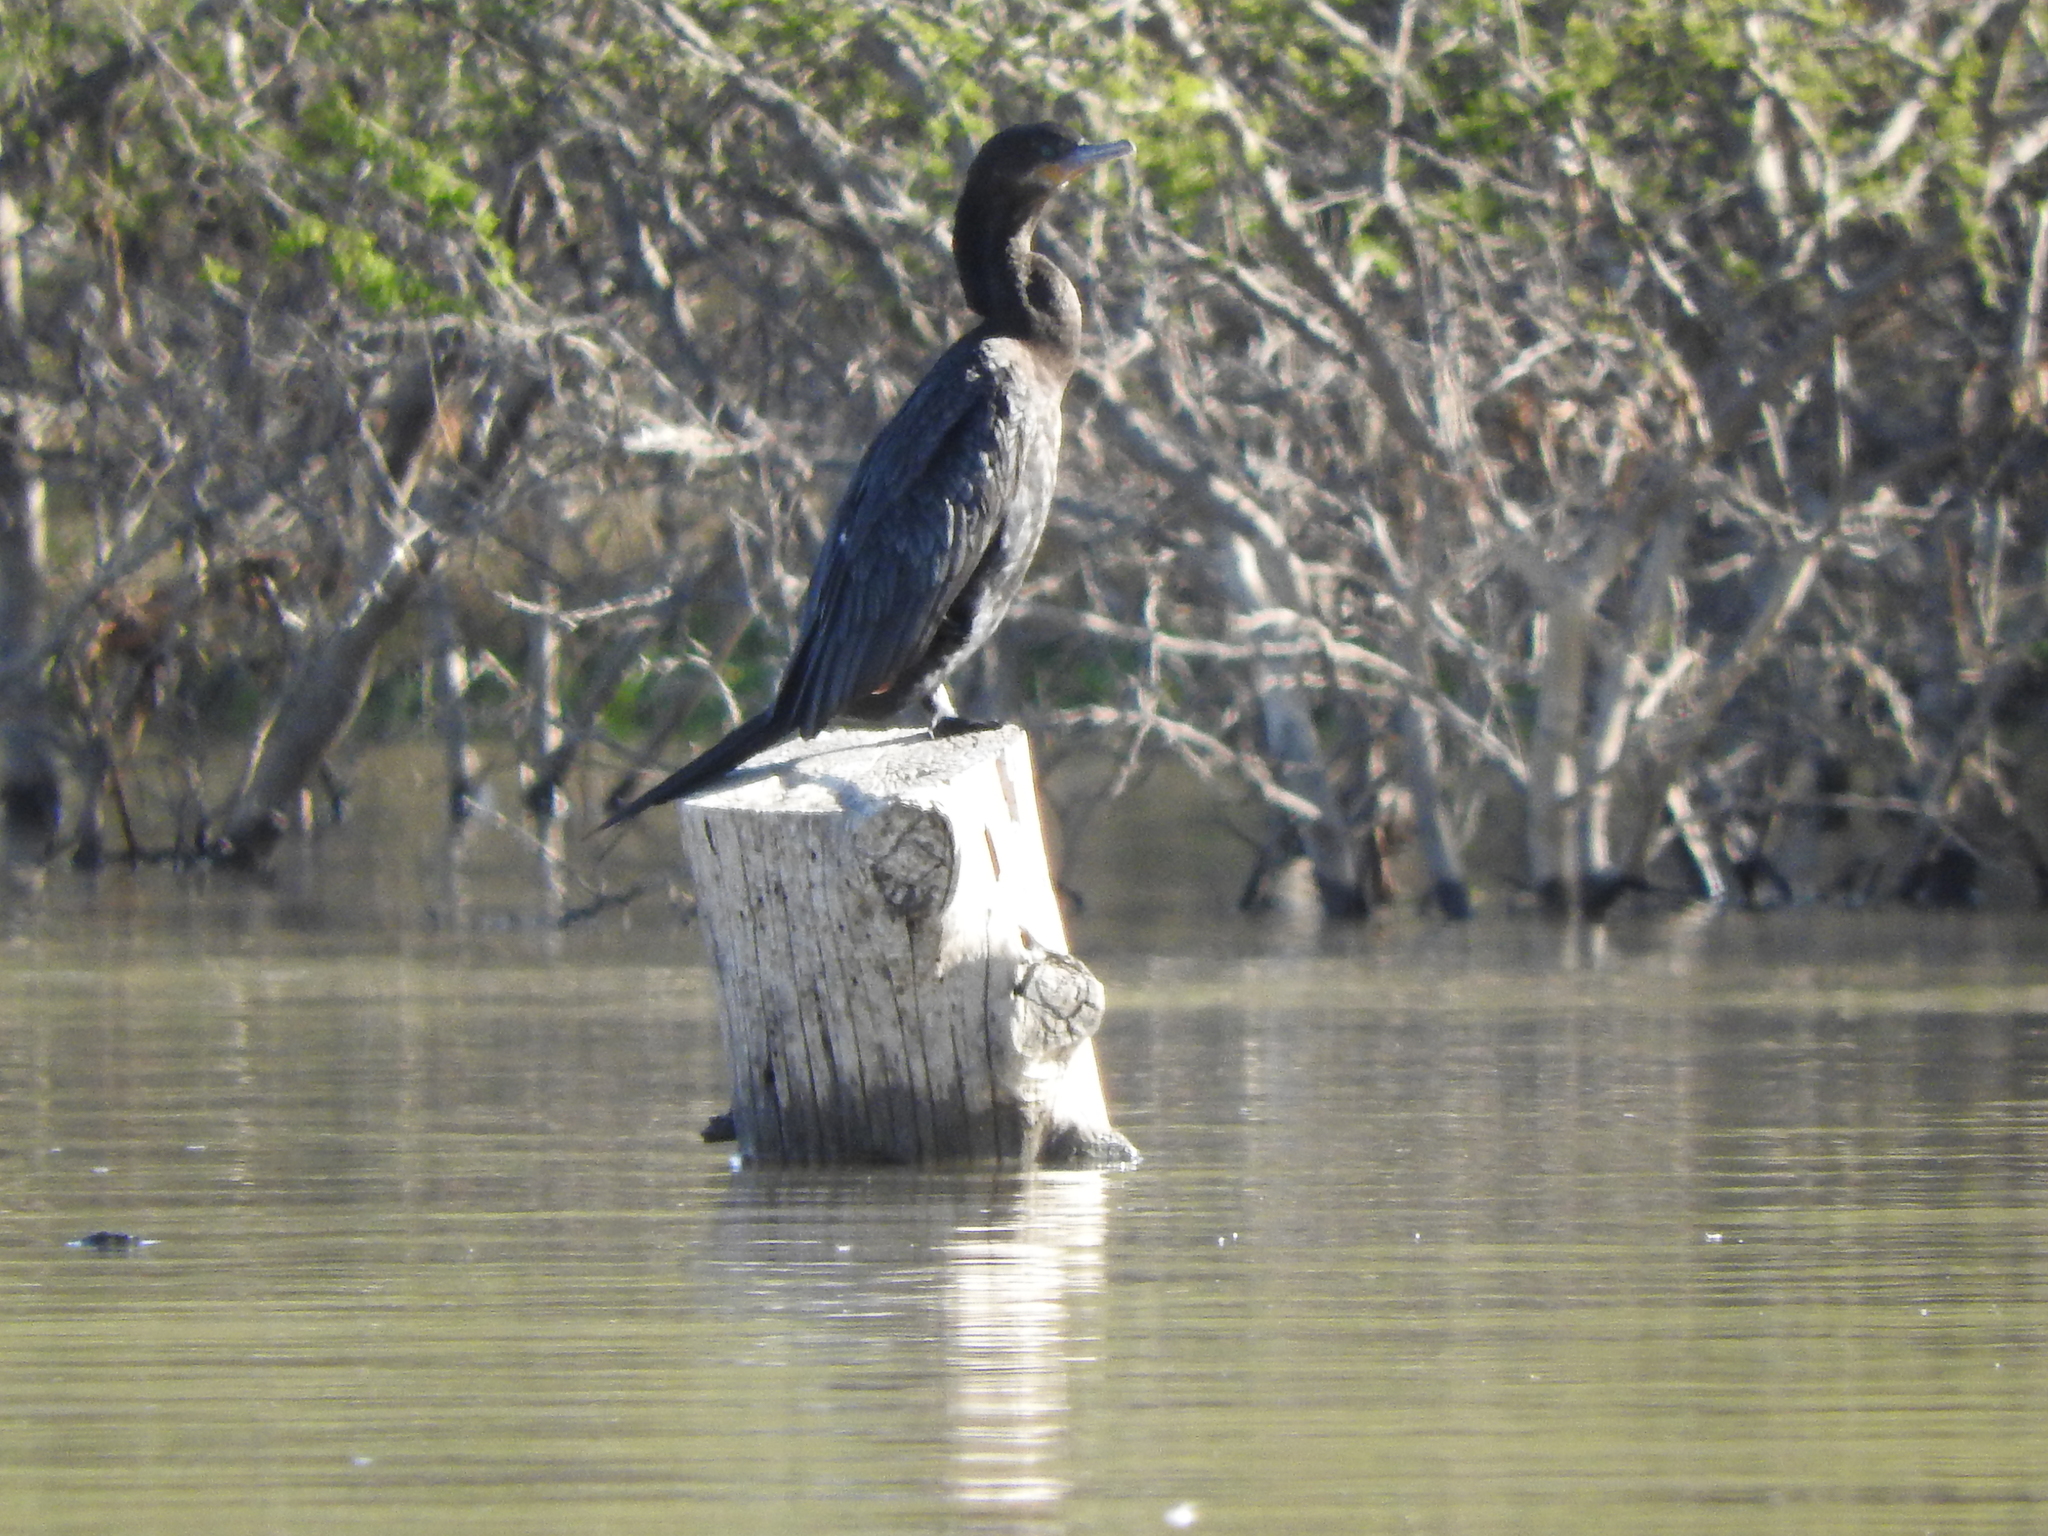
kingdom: Animalia
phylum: Chordata
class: Aves
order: Suliformes
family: Phalacrocoracidae
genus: Phalacrocorax
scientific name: Phalacrocorax brasilianus
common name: Neotropic cormorant
